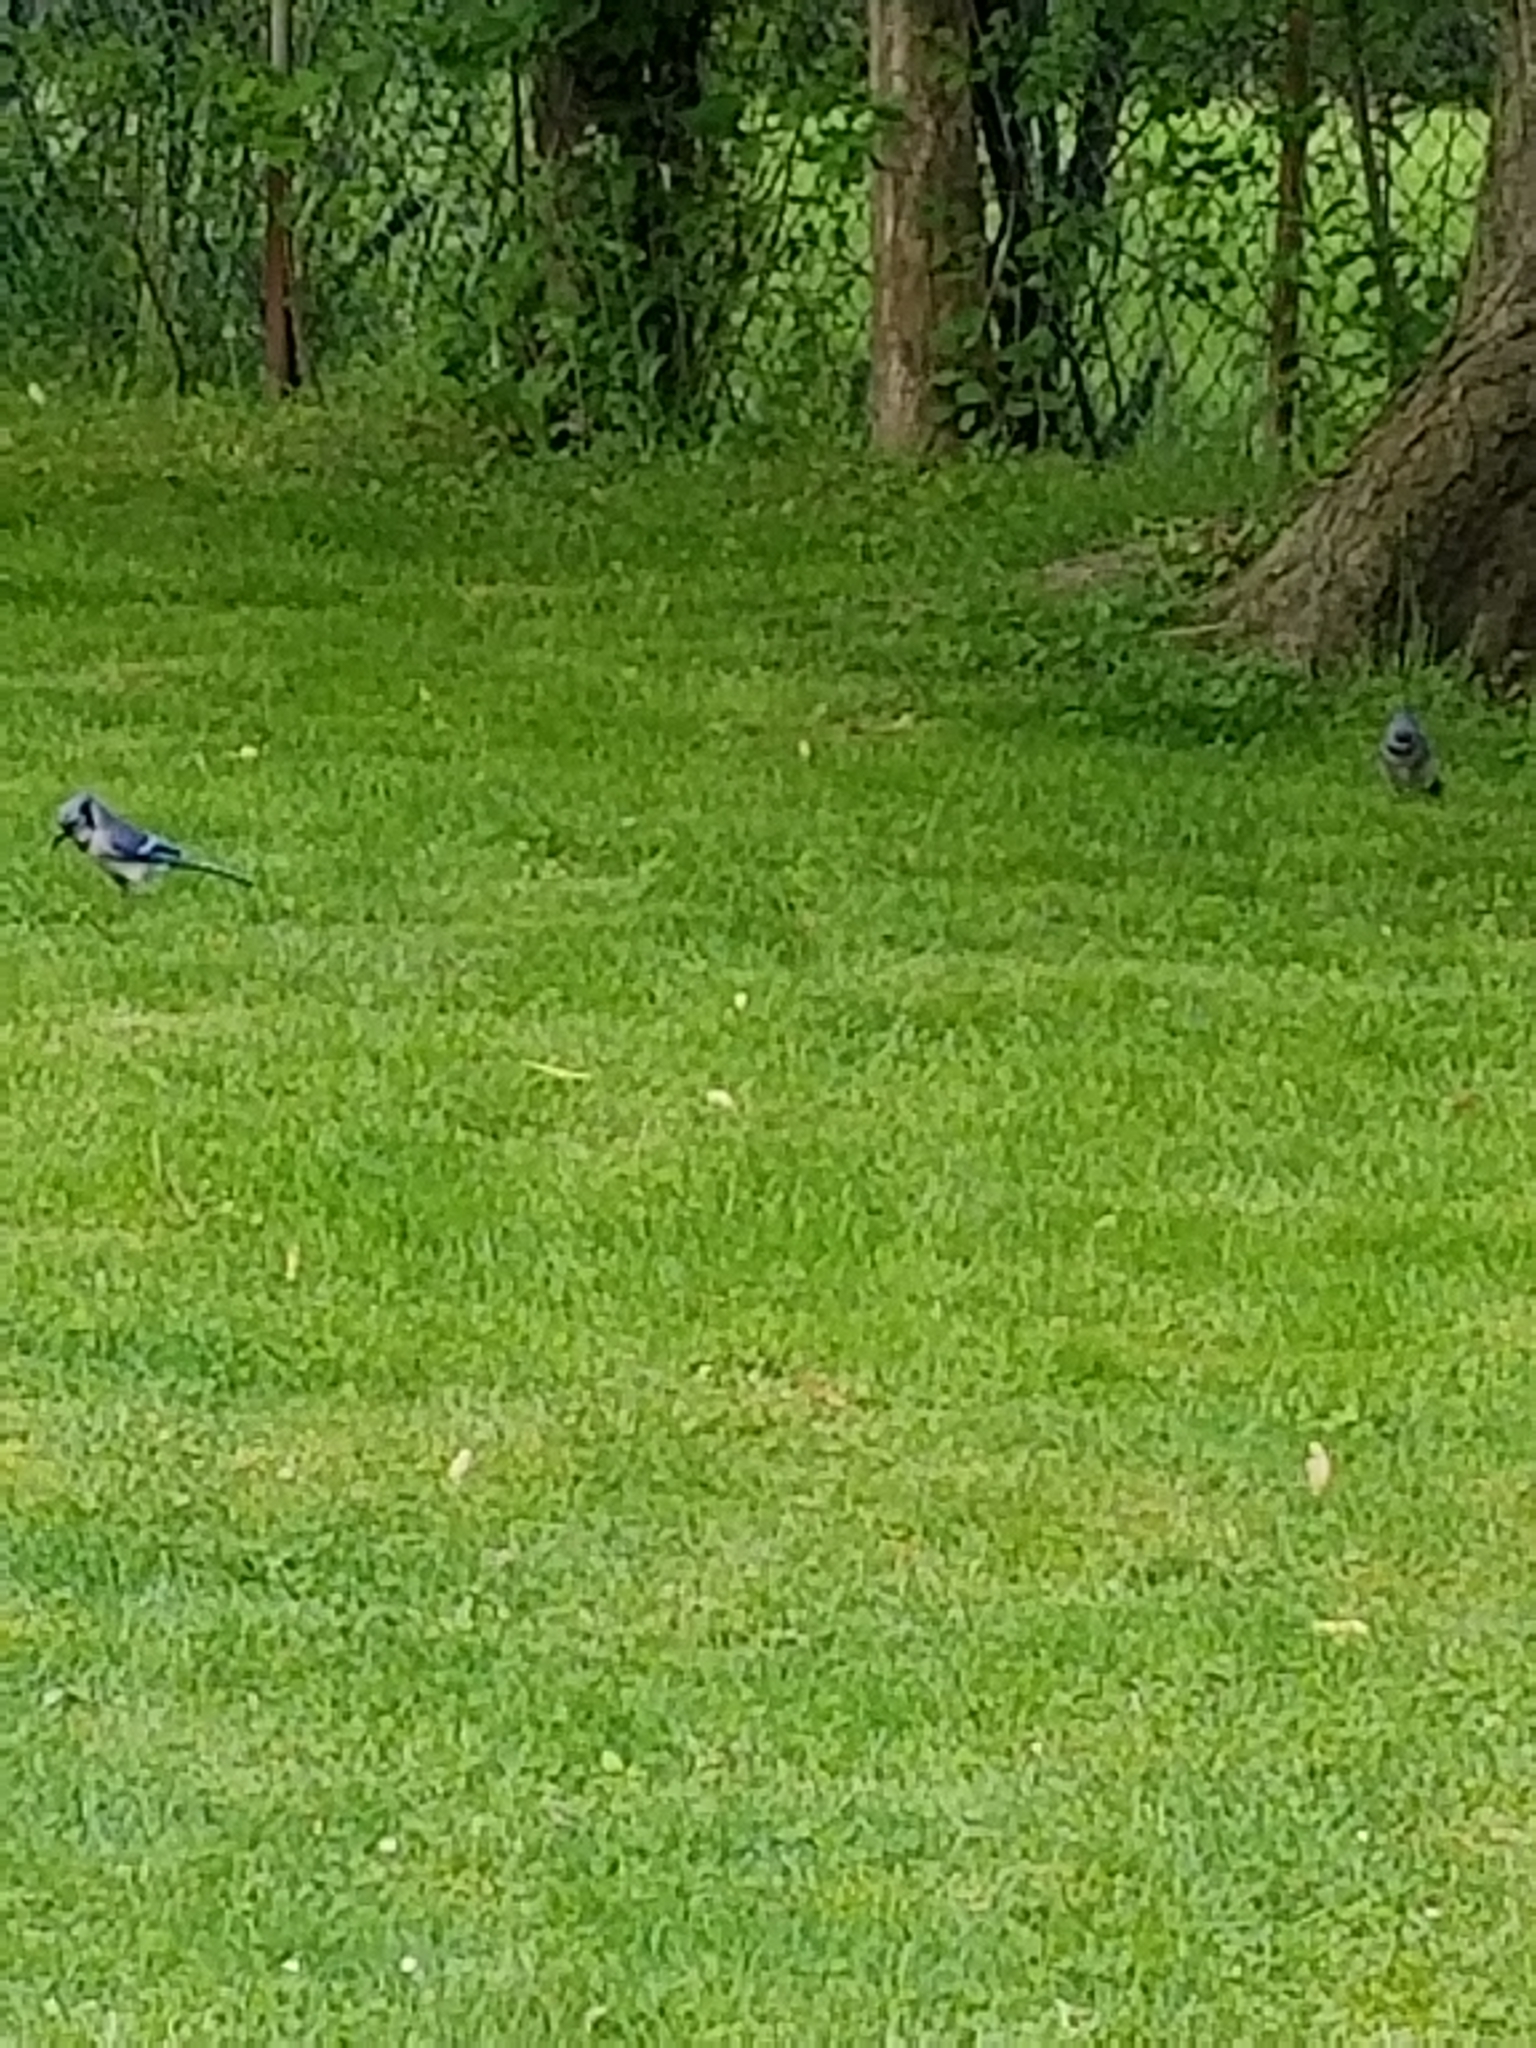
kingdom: Animalia
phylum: Chordata
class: Aves
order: Passeriformes
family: Corvidae
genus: Cyanocitta
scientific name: Cyanocitta cristata
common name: Blue jay
